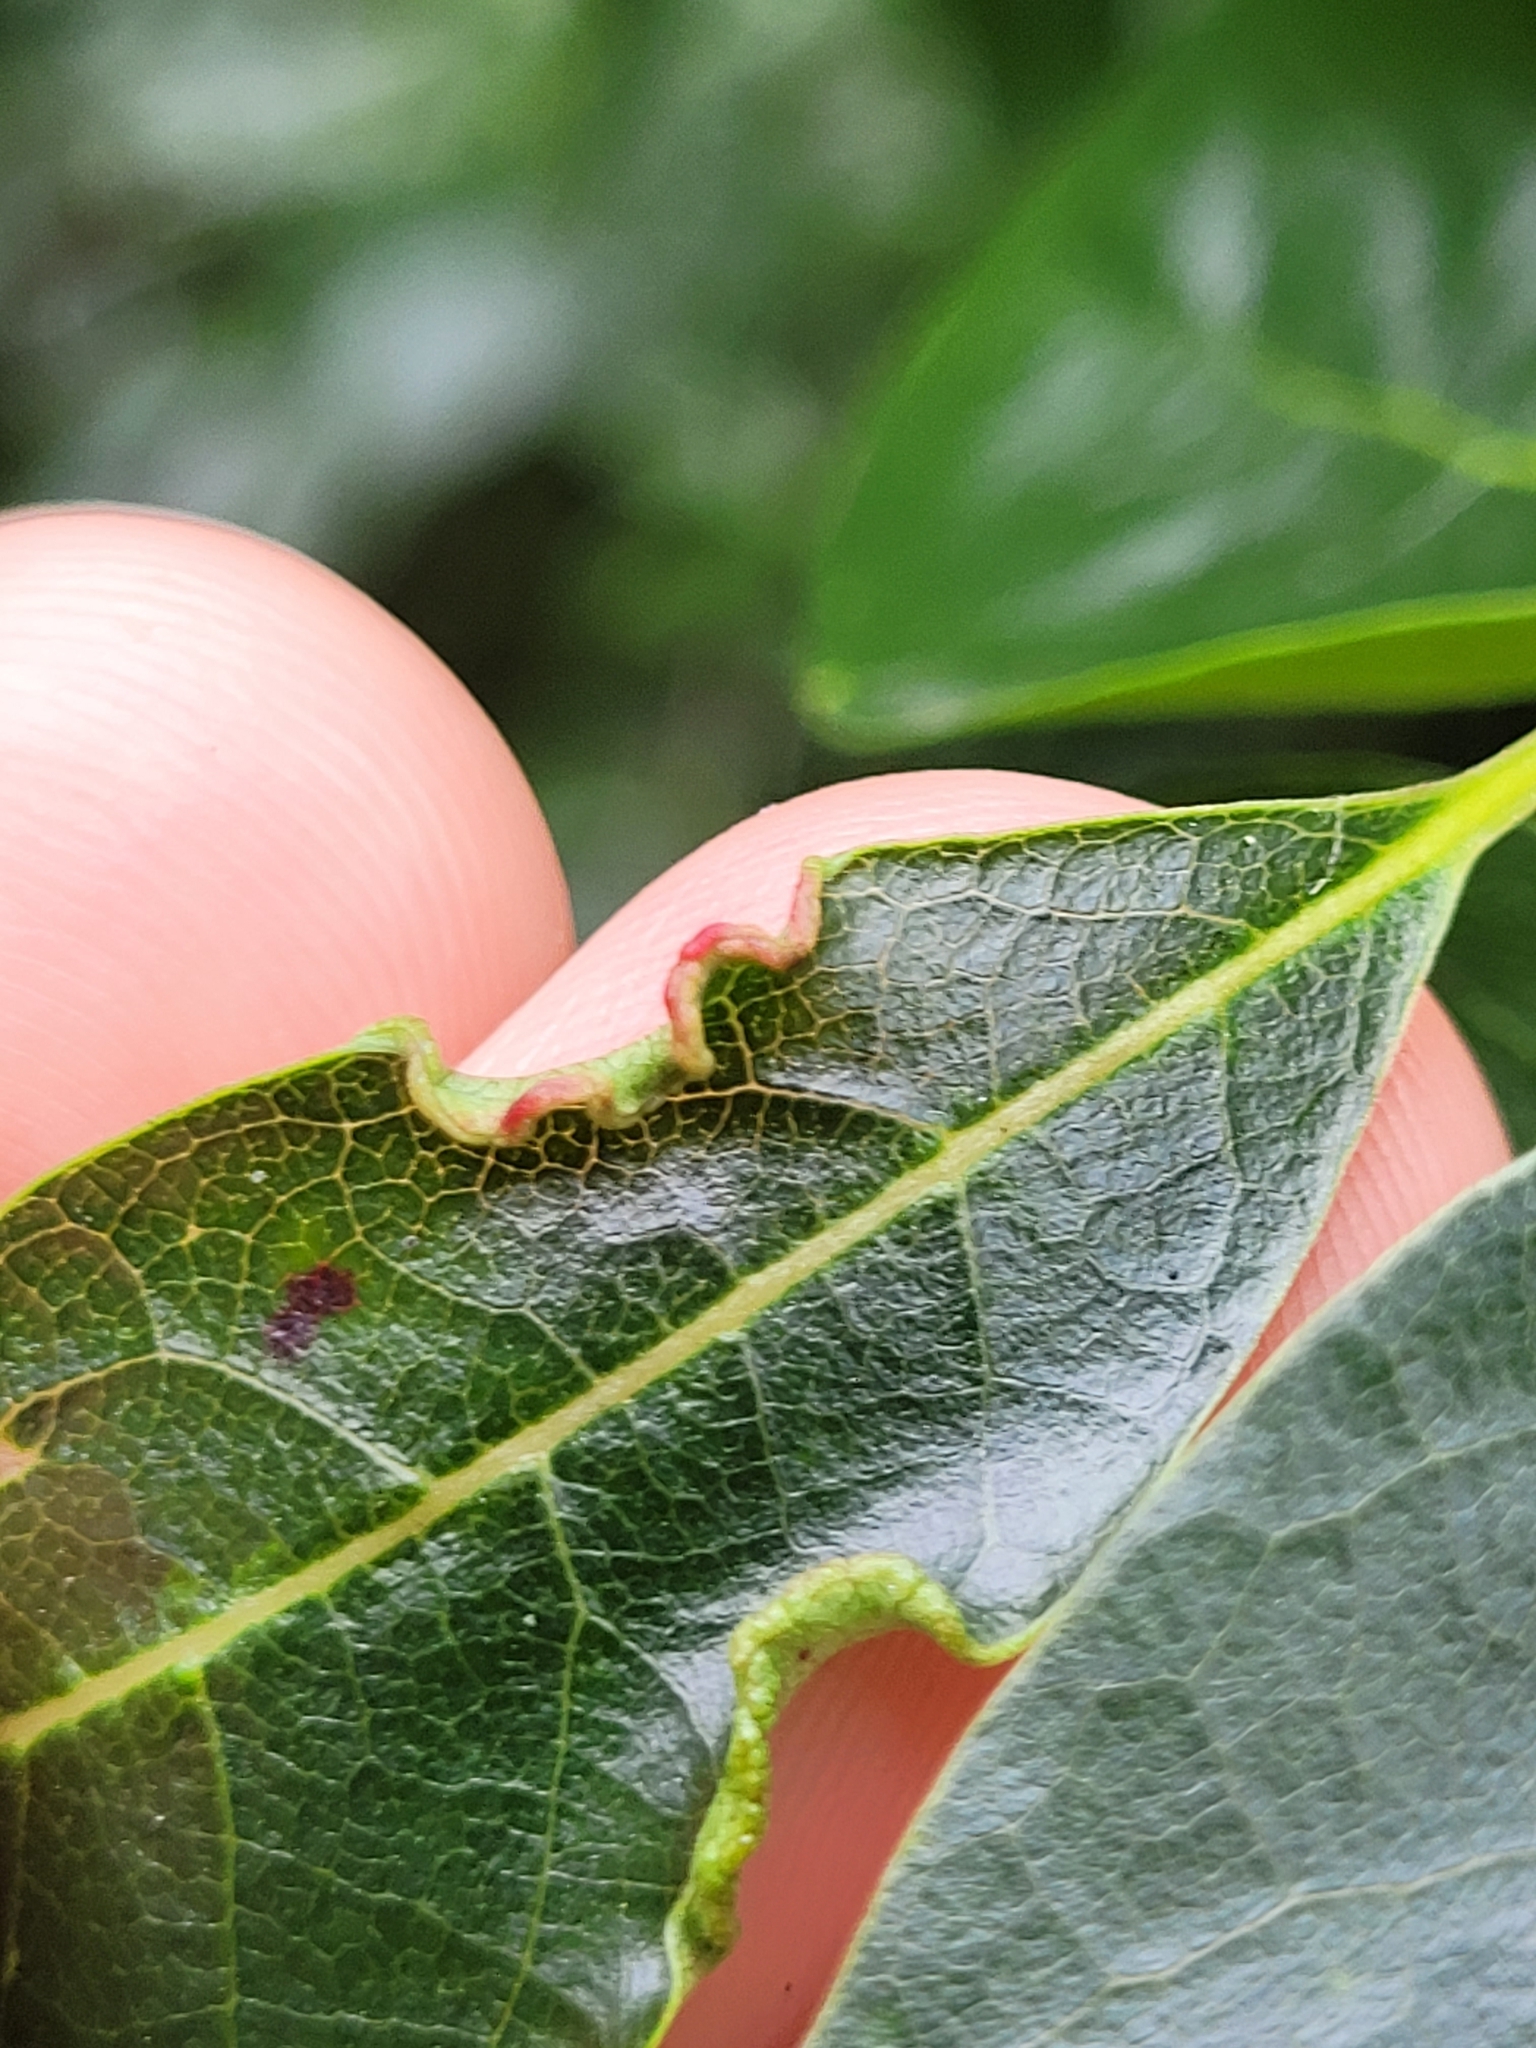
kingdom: Animalia
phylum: Arthropoda
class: Arachnida
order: Trombidiformes
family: Eriophyidae
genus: Aceria
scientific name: Aceria
